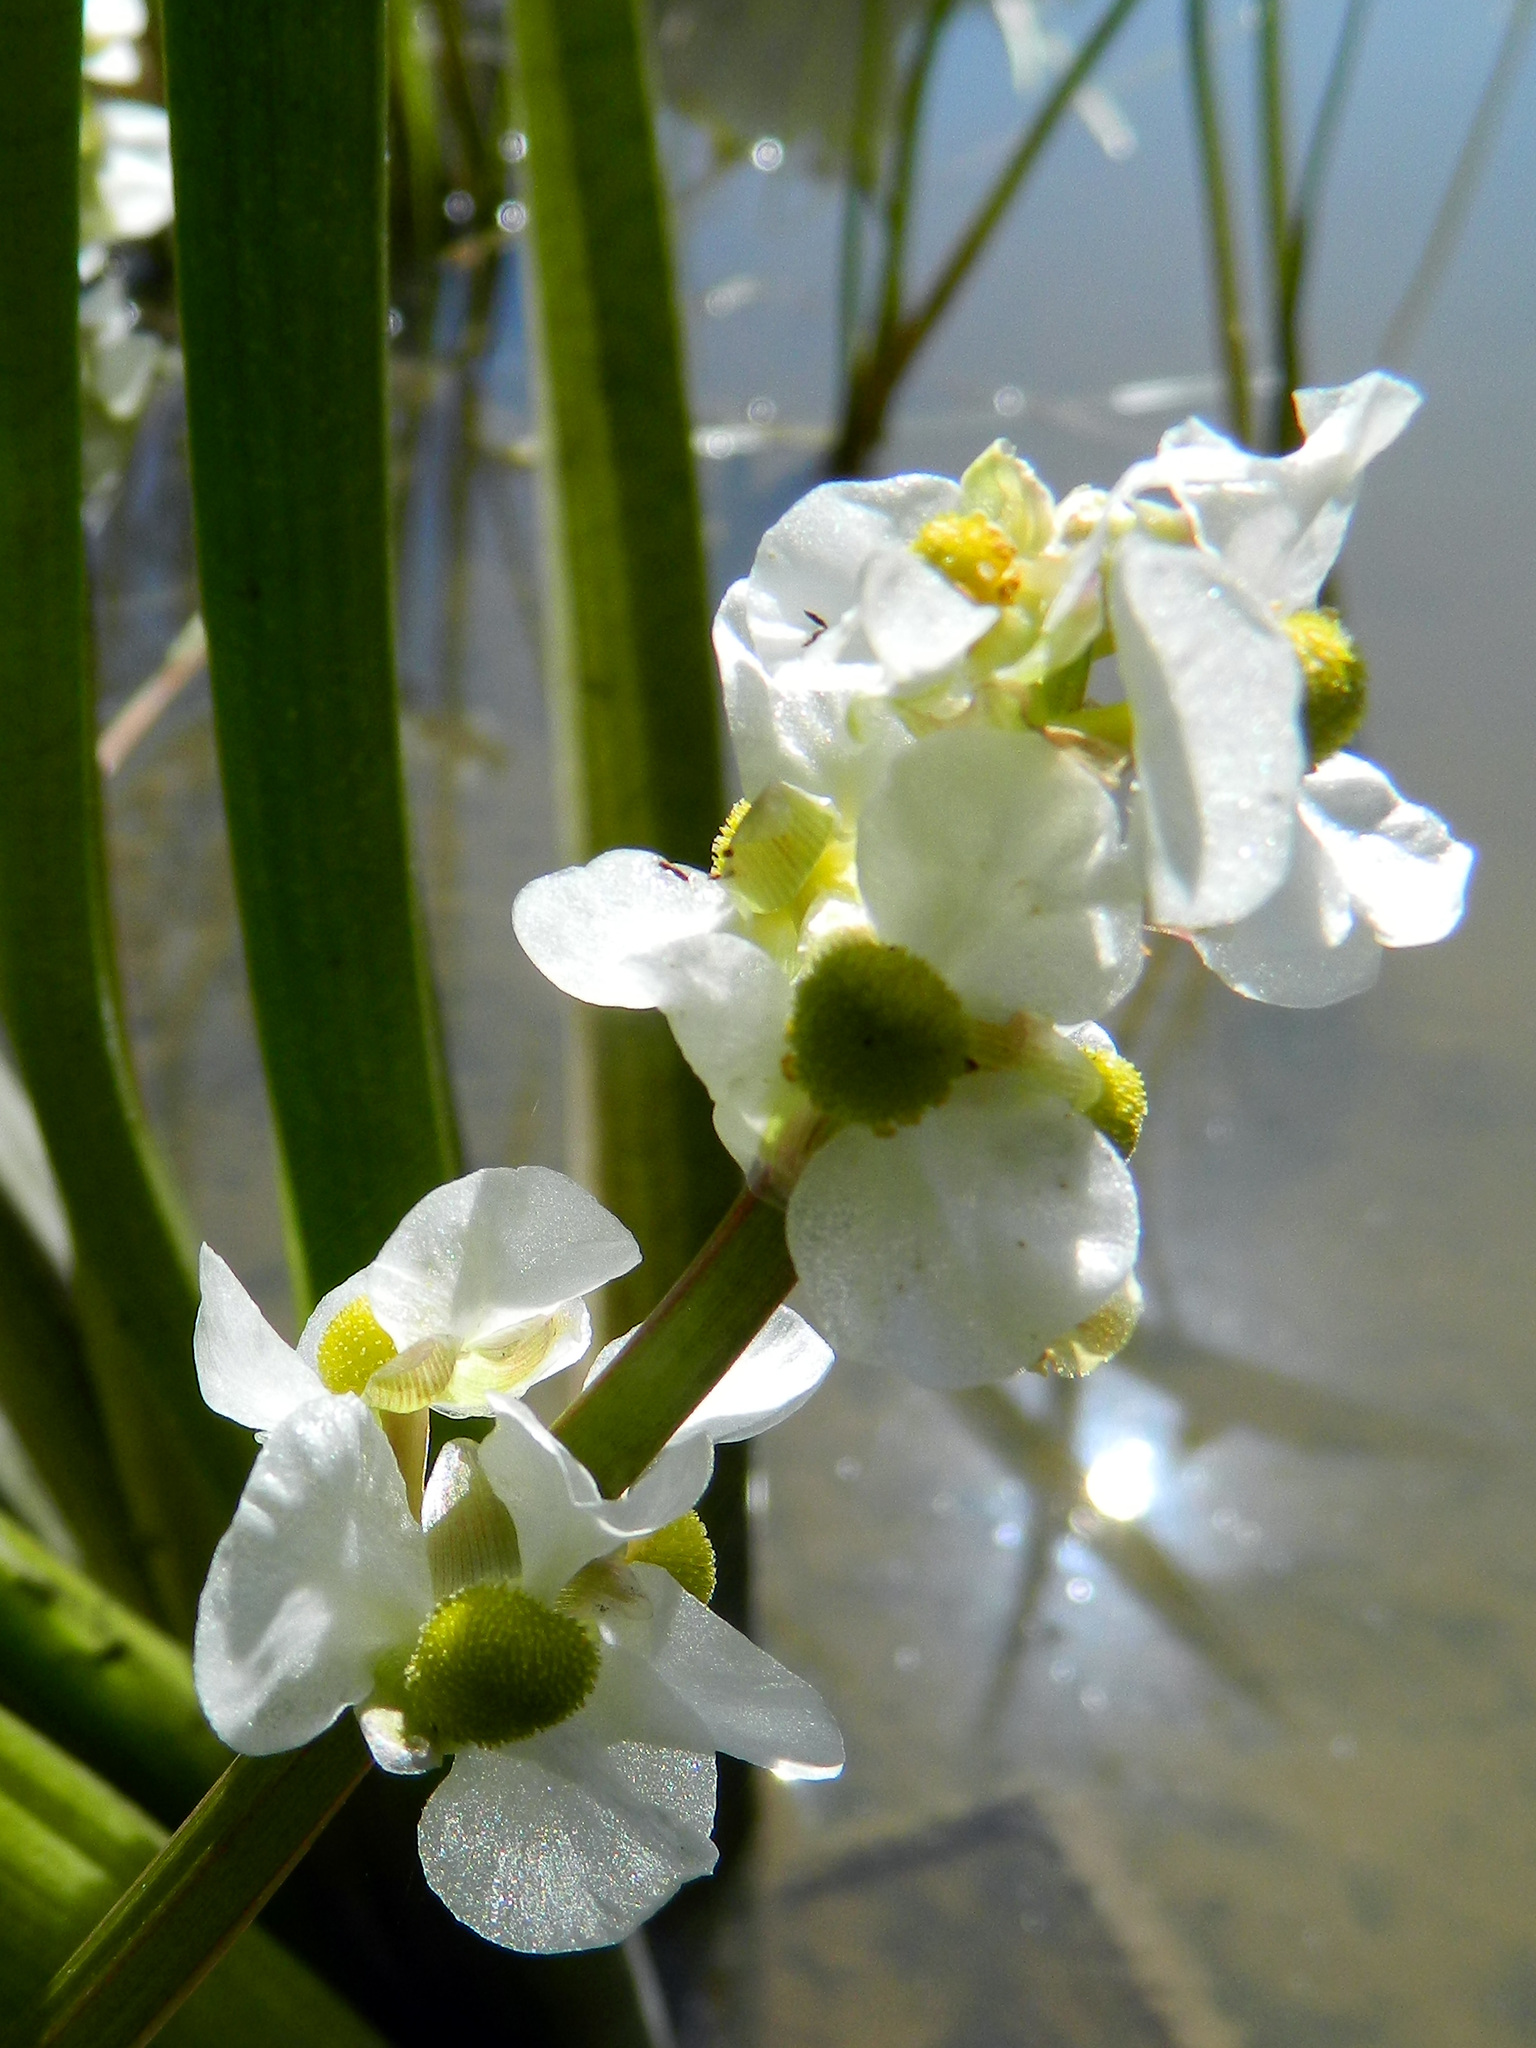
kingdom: Plantae
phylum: Tracheophyta
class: Liliopsida
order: Alismatales
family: Alismataceae
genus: Sagittaria
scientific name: Sagittaria latifolia
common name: Duck-potato
